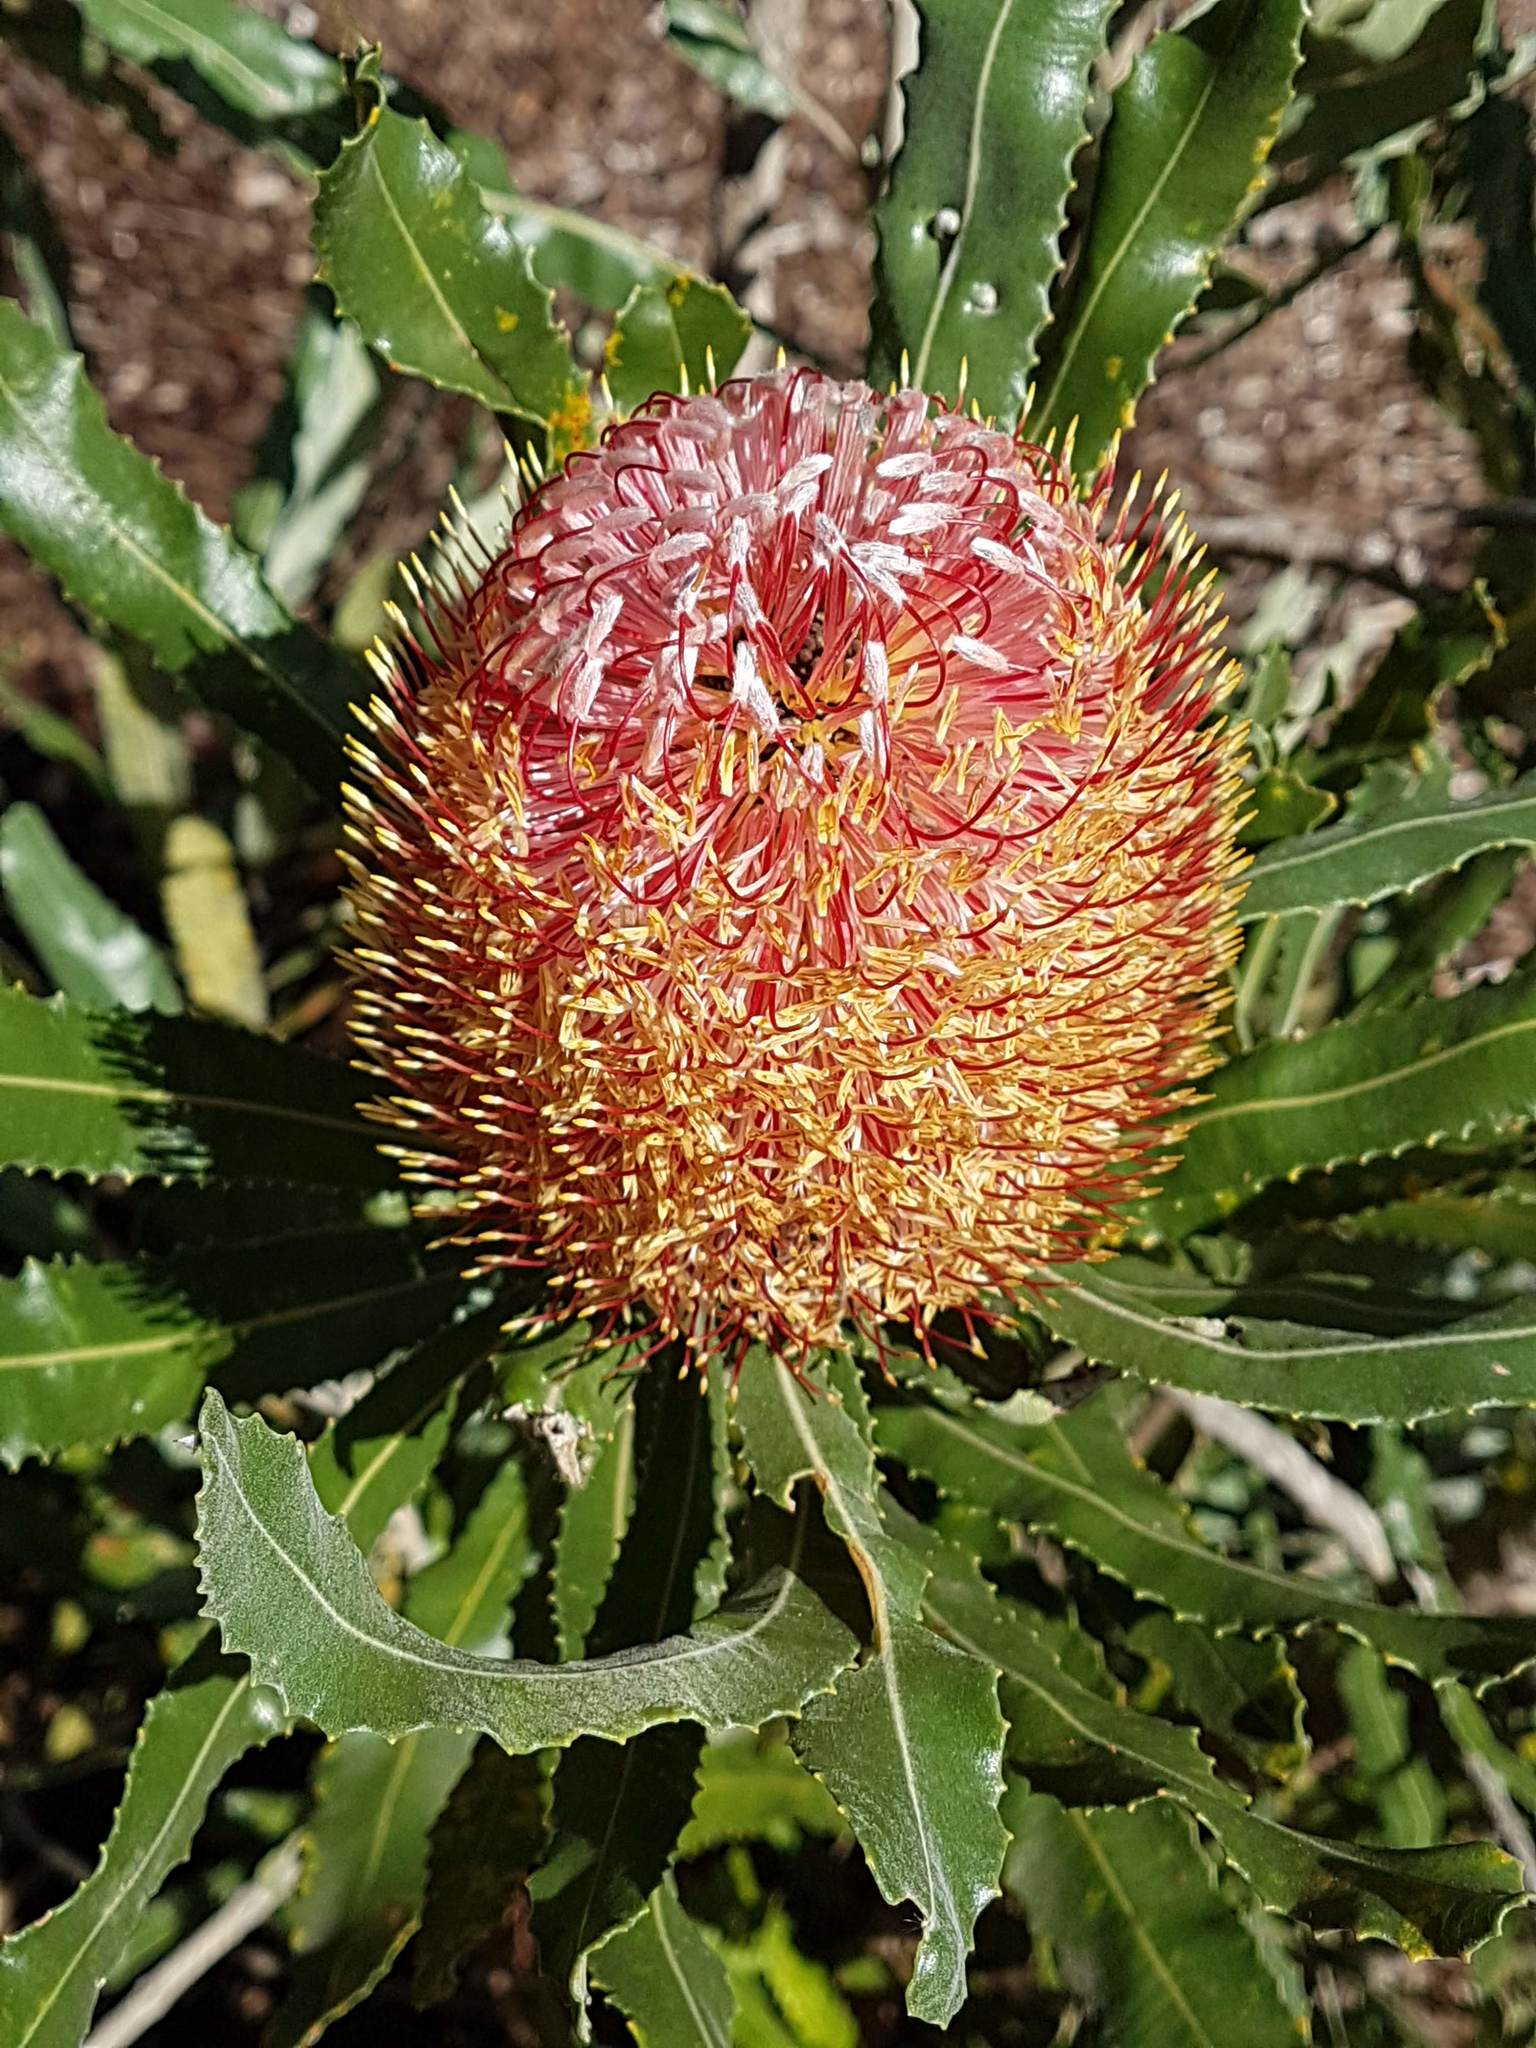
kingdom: Plantae
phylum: Tracheophyta
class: Magnoliopsida
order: Proteales
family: Proteaceae
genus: Banksia
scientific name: Banksia menziesii
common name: Menzie's banksia
